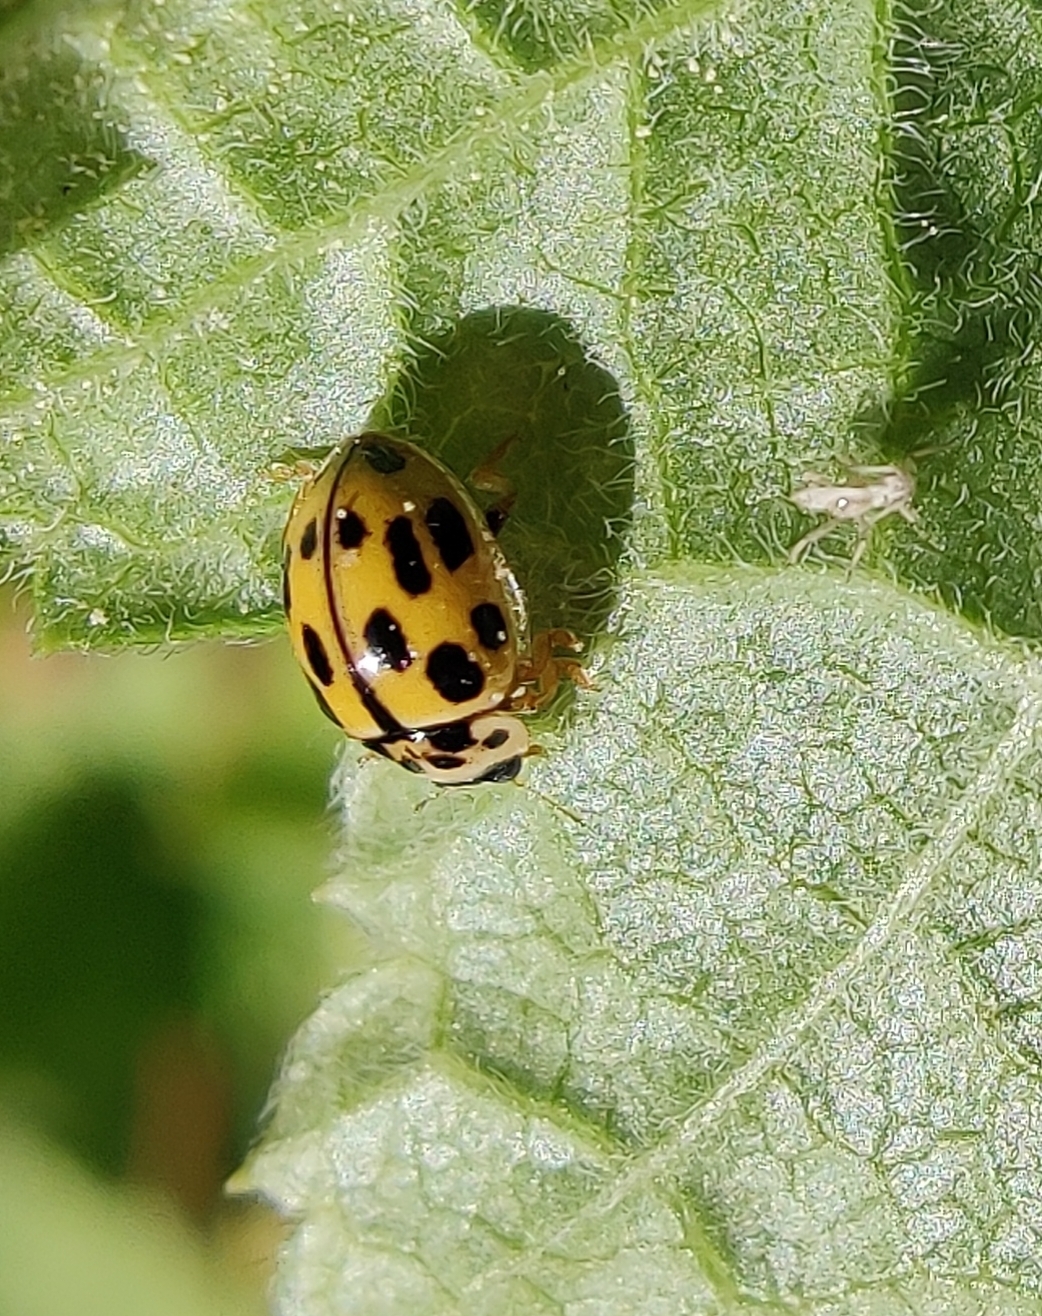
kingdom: Animalia
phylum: Arthropoda
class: Insecta
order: Coleoptera
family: Coccinellidae
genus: Propylaea
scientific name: Propylaea quatuordecimpunctata
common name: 14-spotted ladybird beetle
